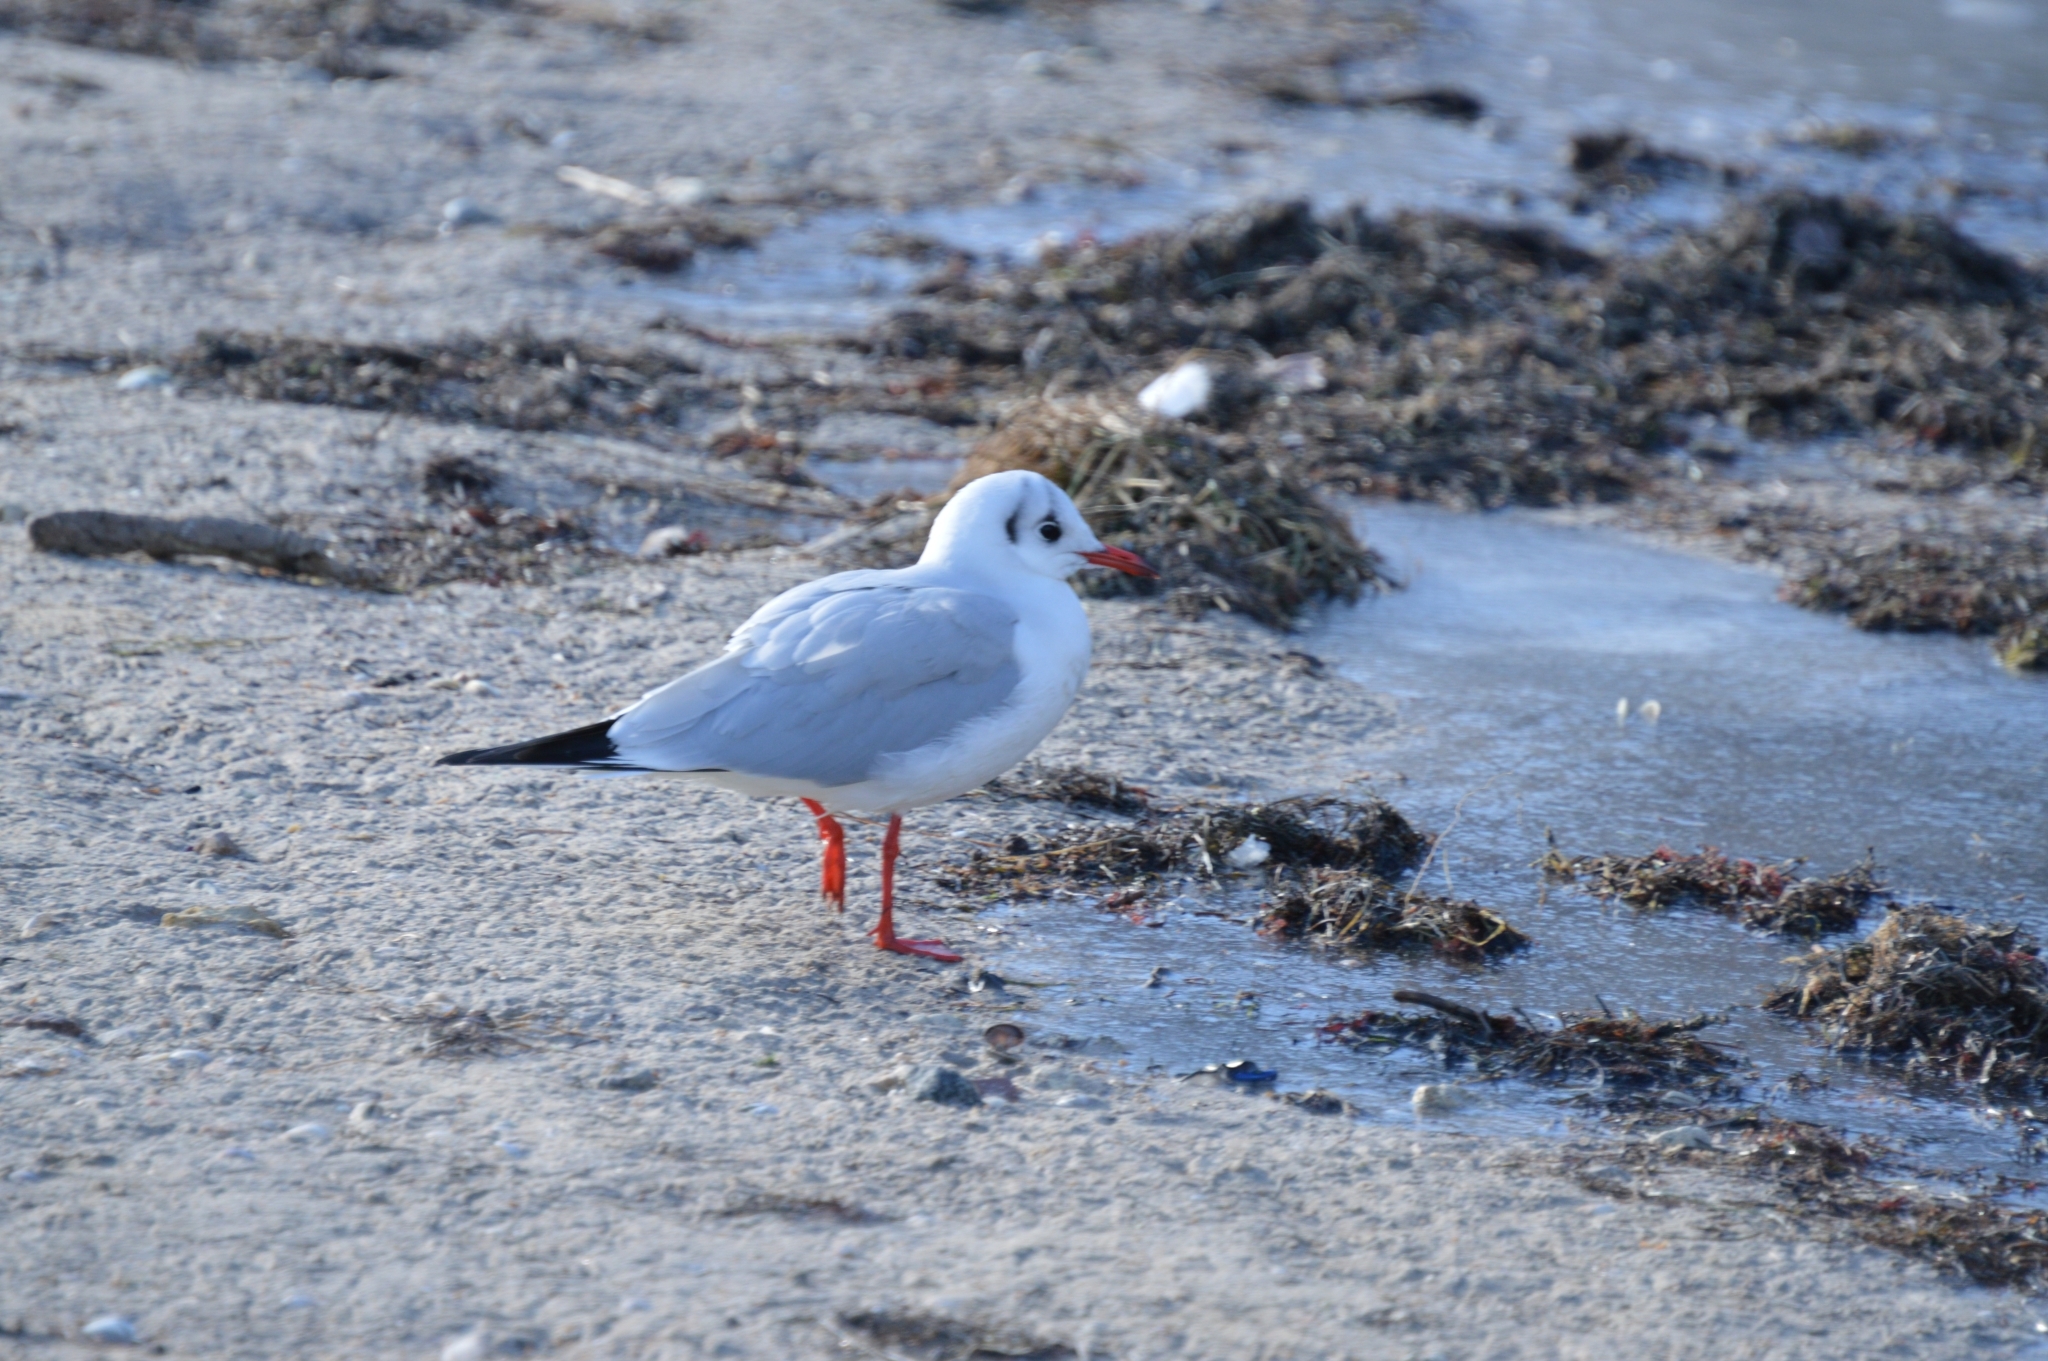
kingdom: Animalia
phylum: Chordata
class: Aves
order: Charadriiformes
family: Laridae
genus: Chroicocephalus
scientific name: Chroicocephalus ridibundus
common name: Black-headed gull
